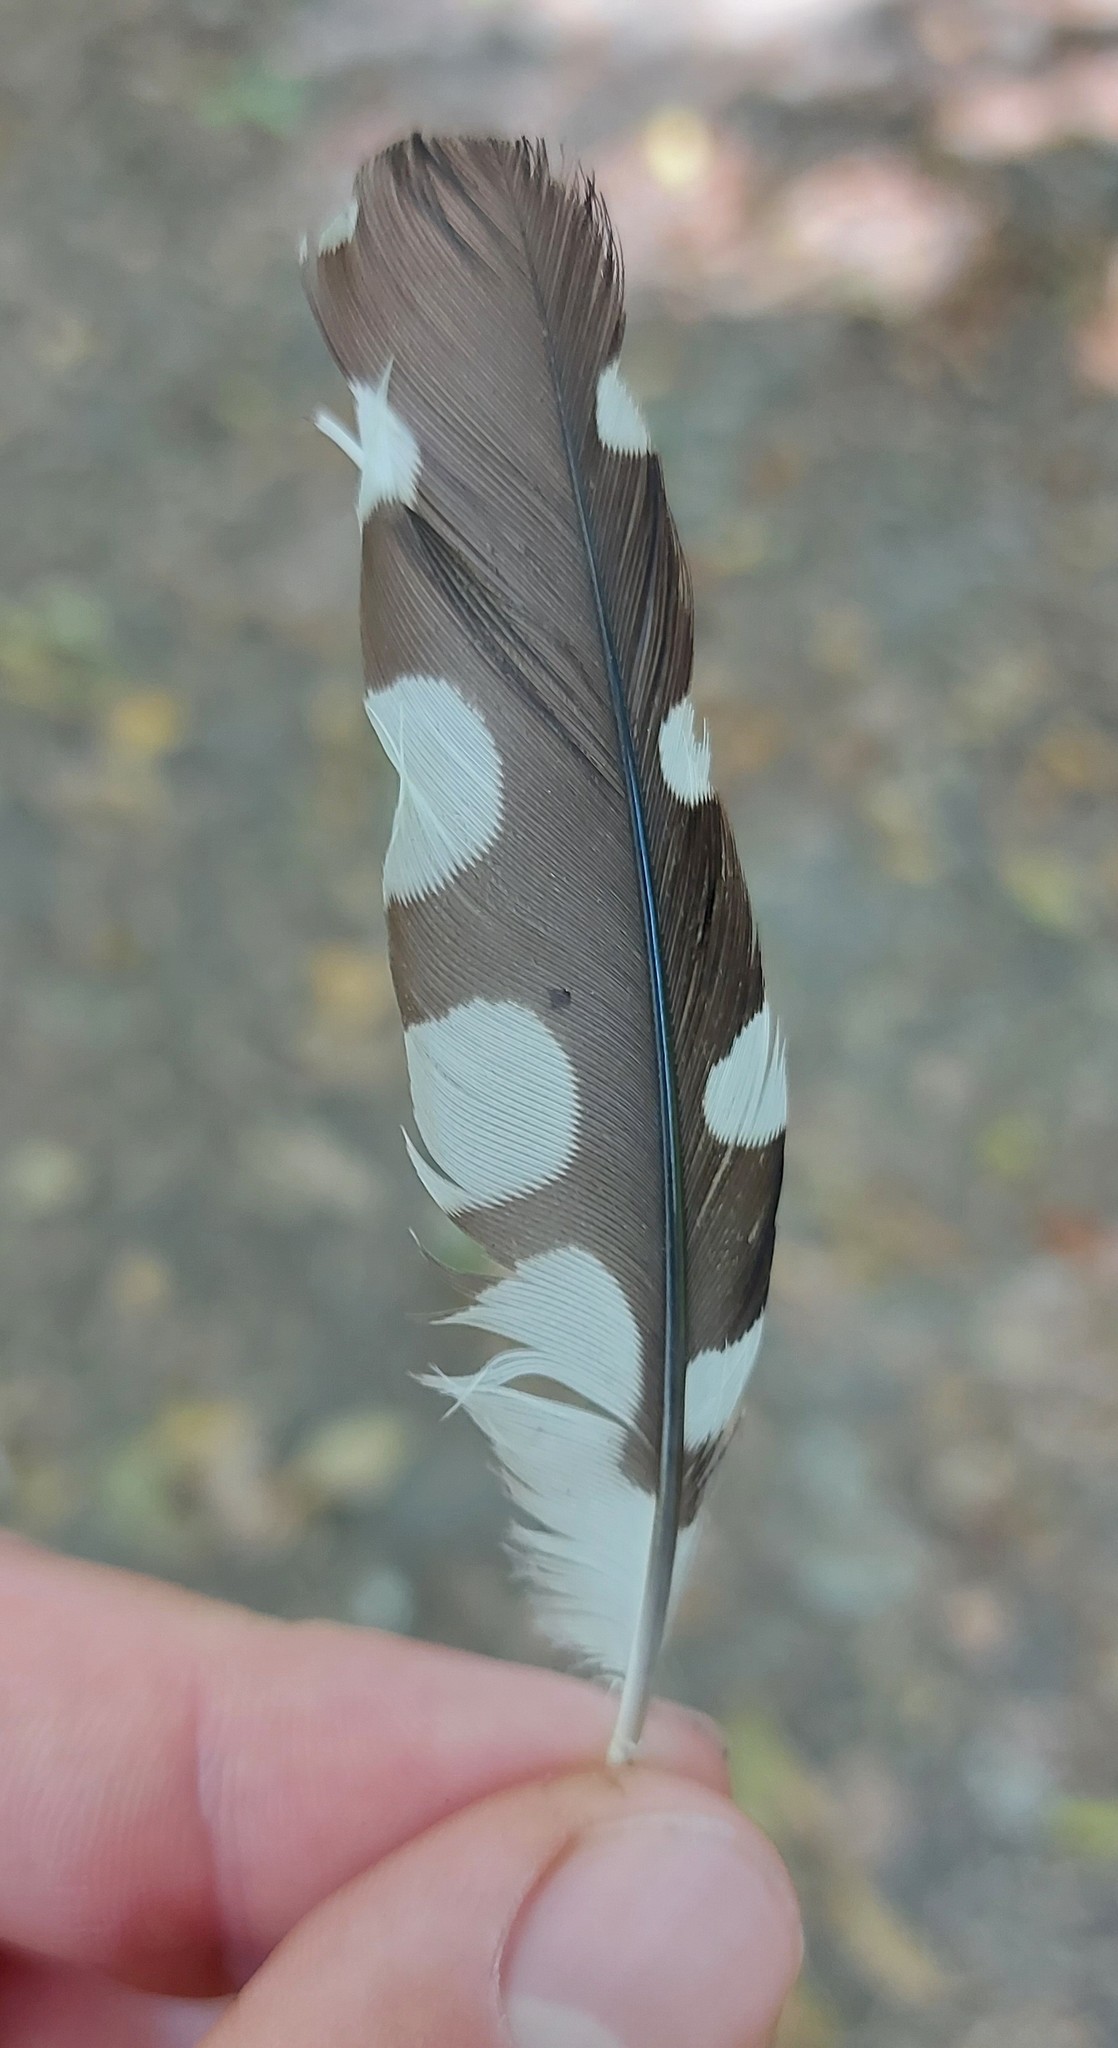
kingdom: Animalia
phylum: Chordata
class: Aves
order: Piciformes
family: Picidae
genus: Dendrocopos
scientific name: Dendrocopos major
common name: Great spotted woodpecker
